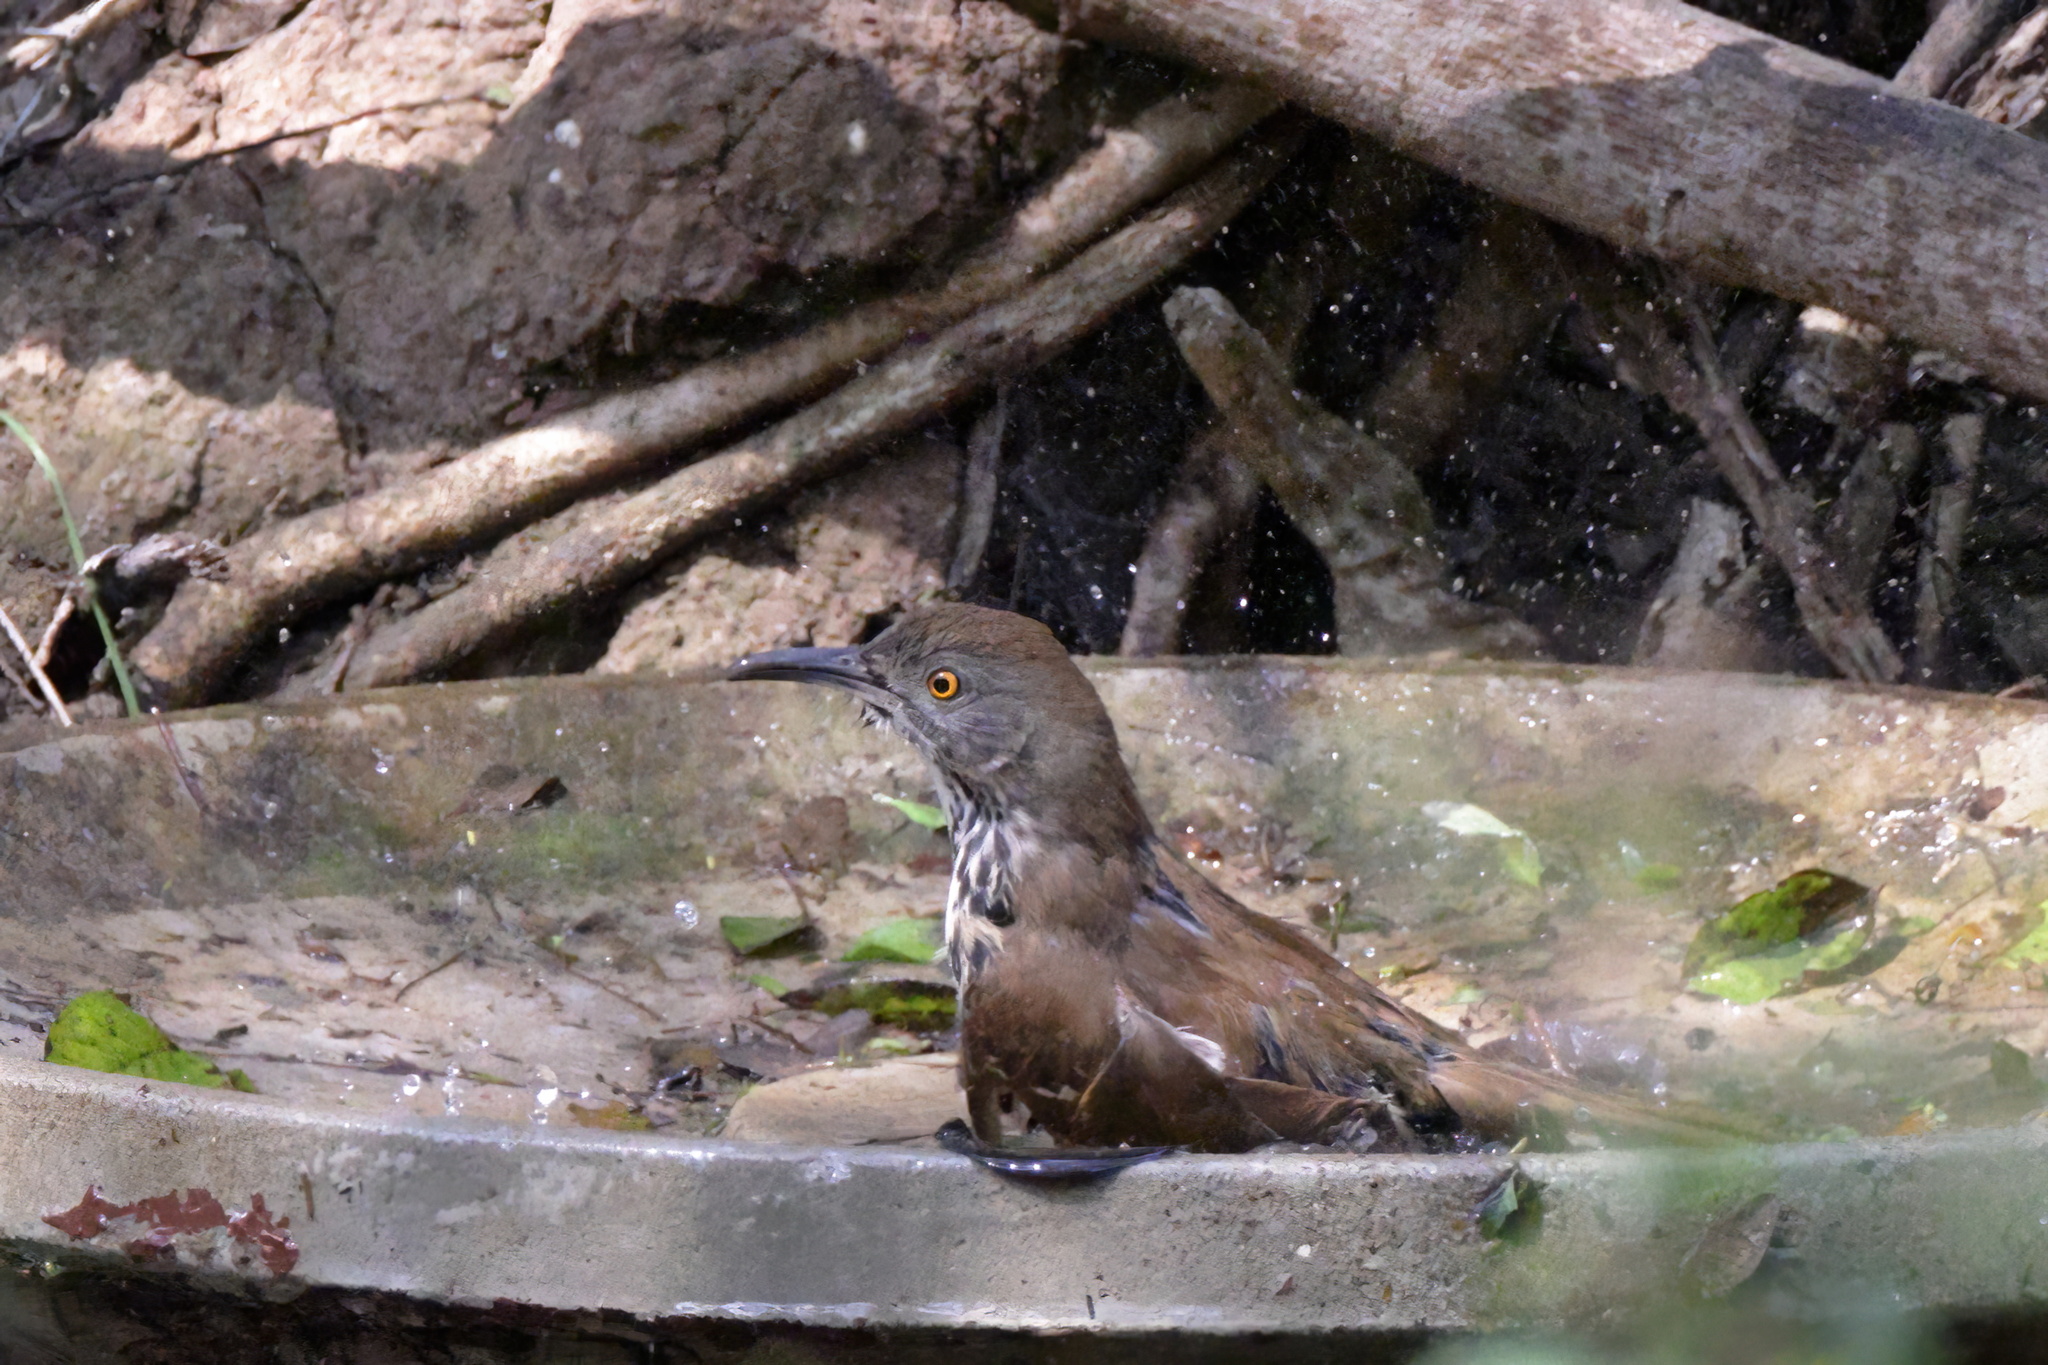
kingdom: Animalia
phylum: Chordata
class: Aves
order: Passeriformes
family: Mimidae
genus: Toxostoma
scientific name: Toxostoma longirostre
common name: Long-billed thrasher
